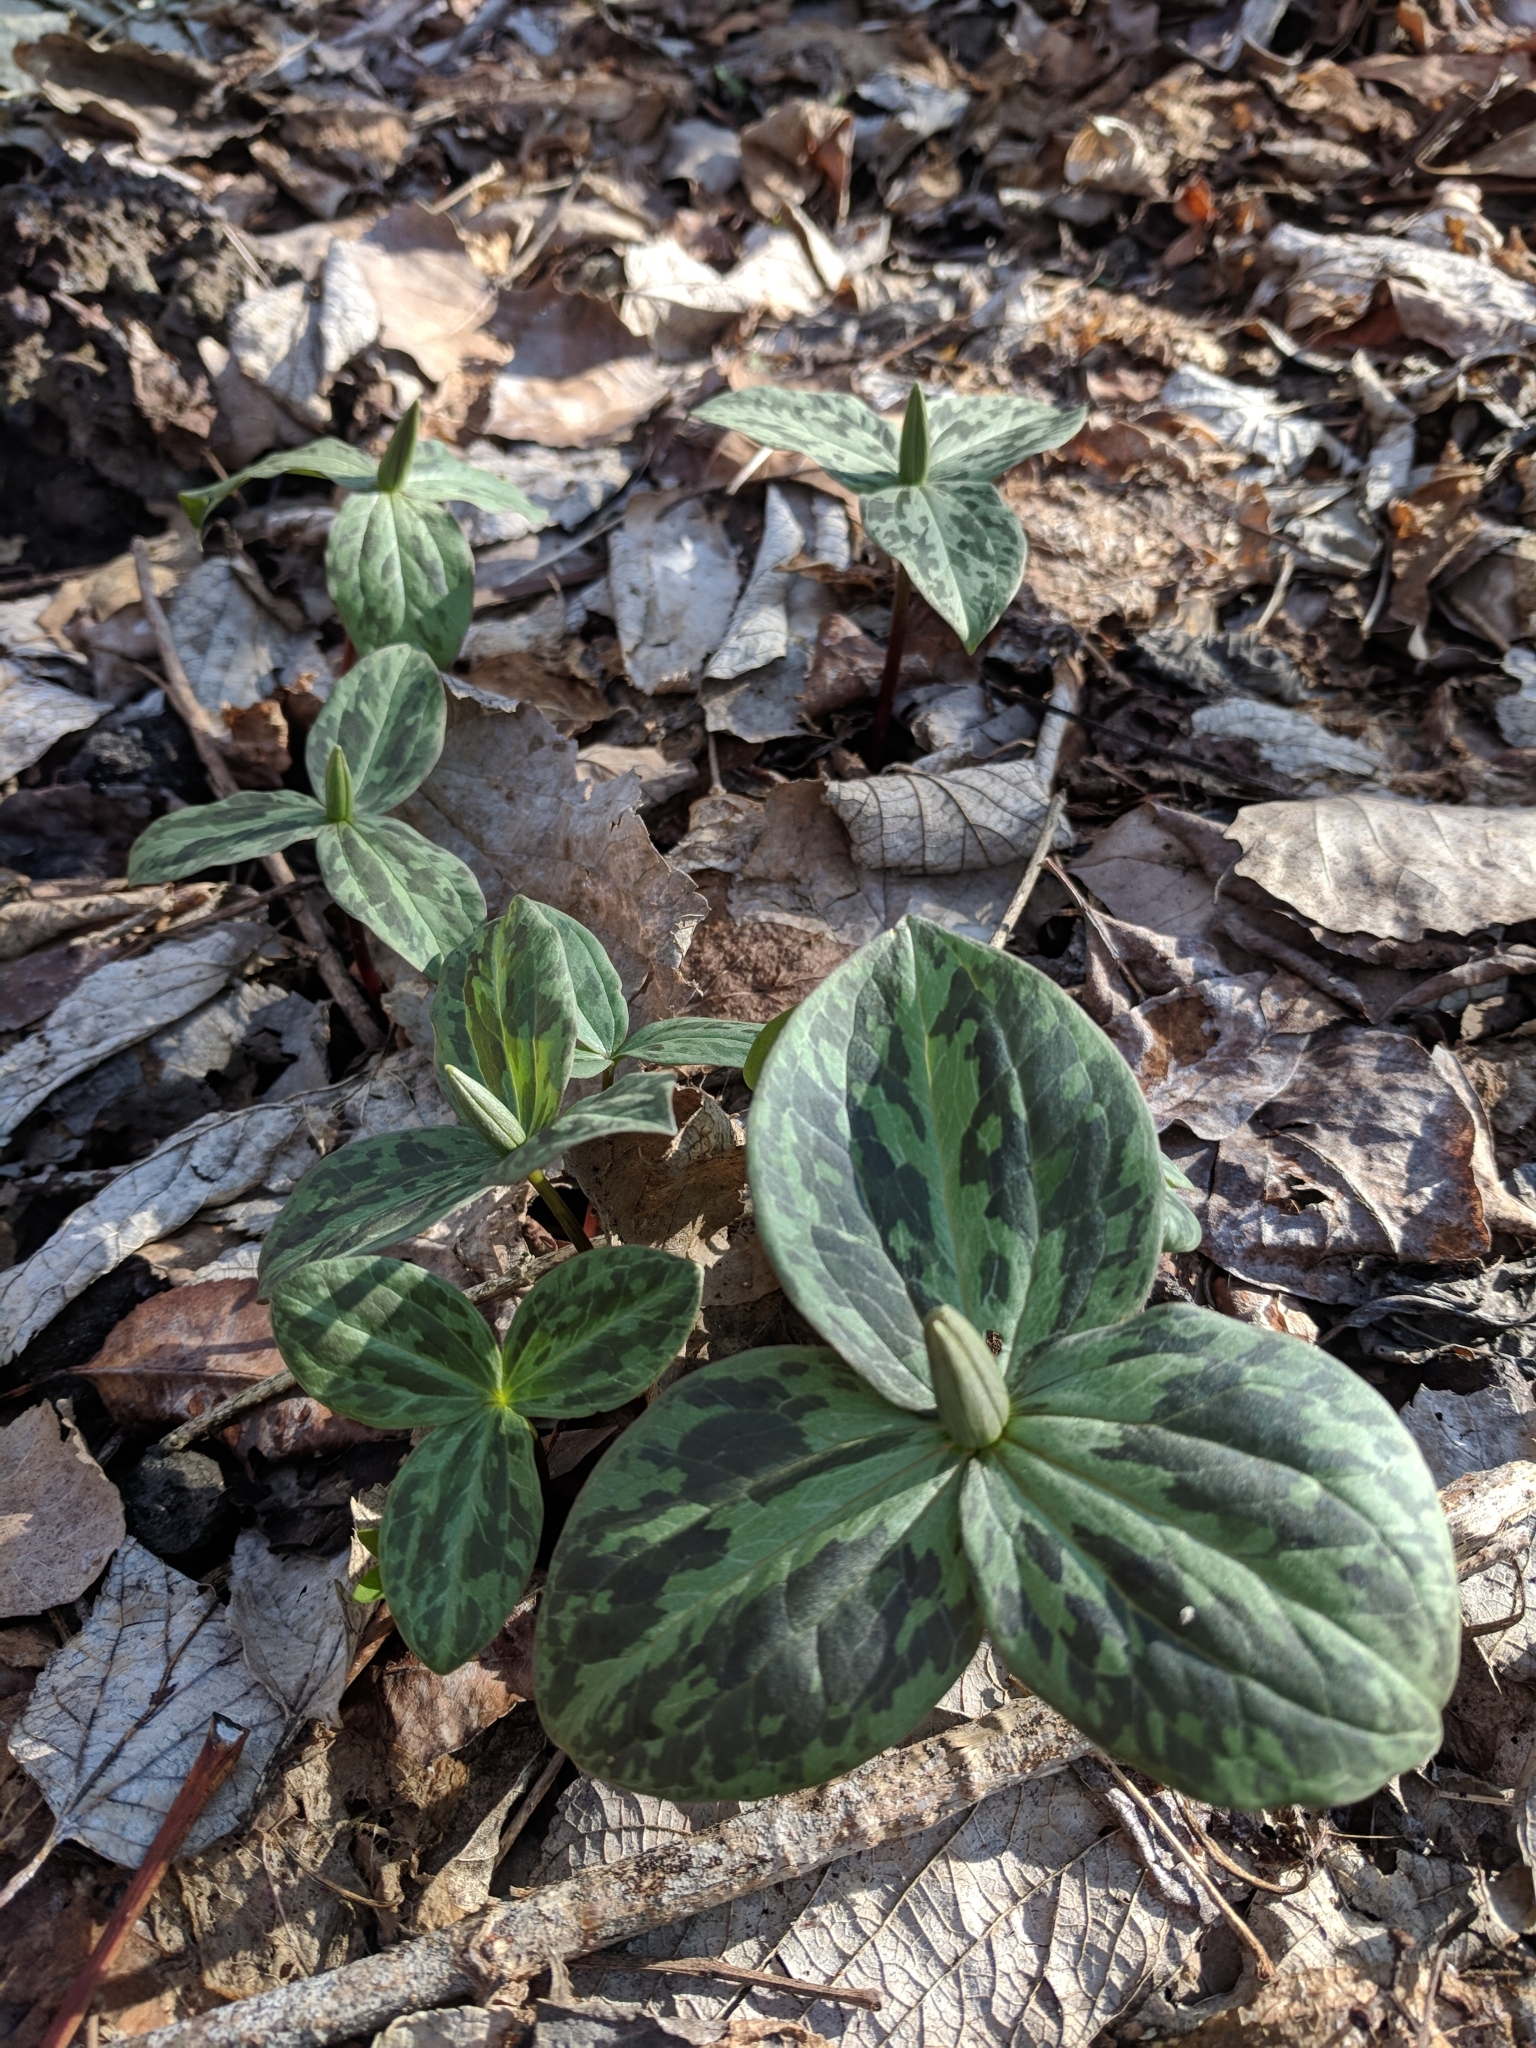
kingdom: Plantae
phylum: Tracheophyta
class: Liliopsida
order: Liliales
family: Melanthiaceae
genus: Trillium
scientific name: Trillium sessile
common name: Sessile trillium
